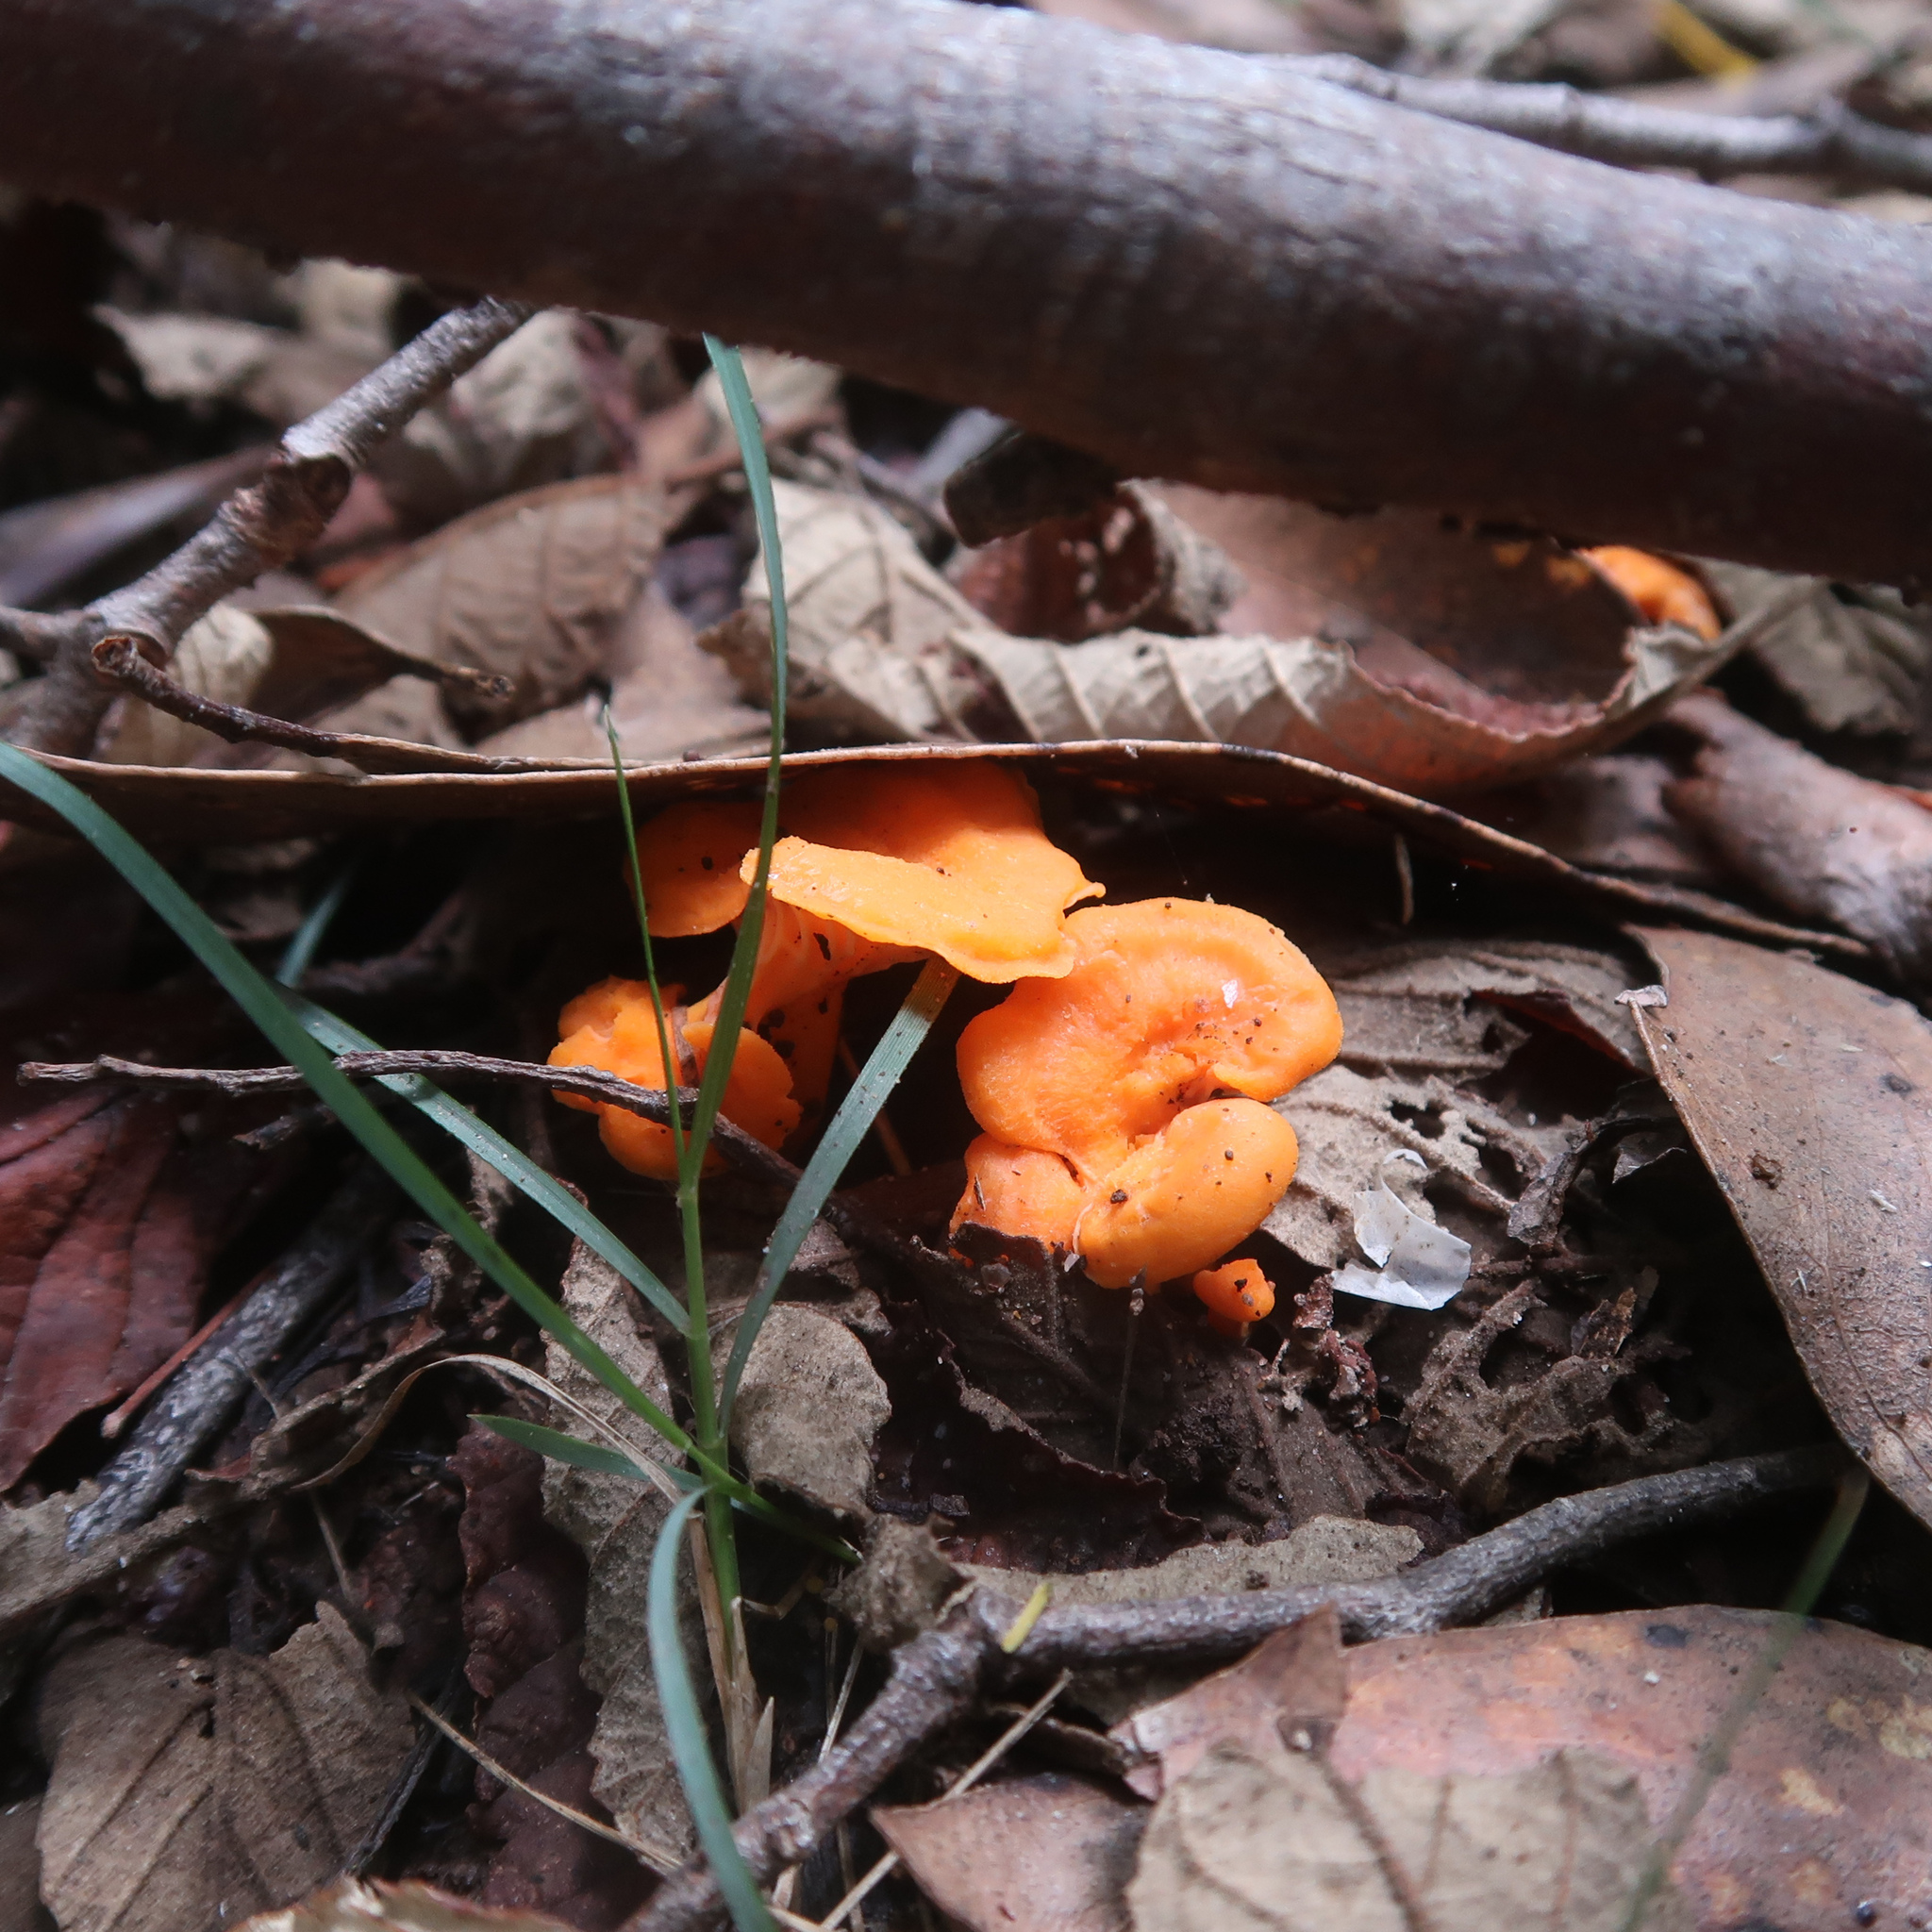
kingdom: Fungi
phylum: Basidiomycota
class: Agaricomycetes
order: Cantharellales
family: Hydnaceae
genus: Cantharellus
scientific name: Cantharellus
